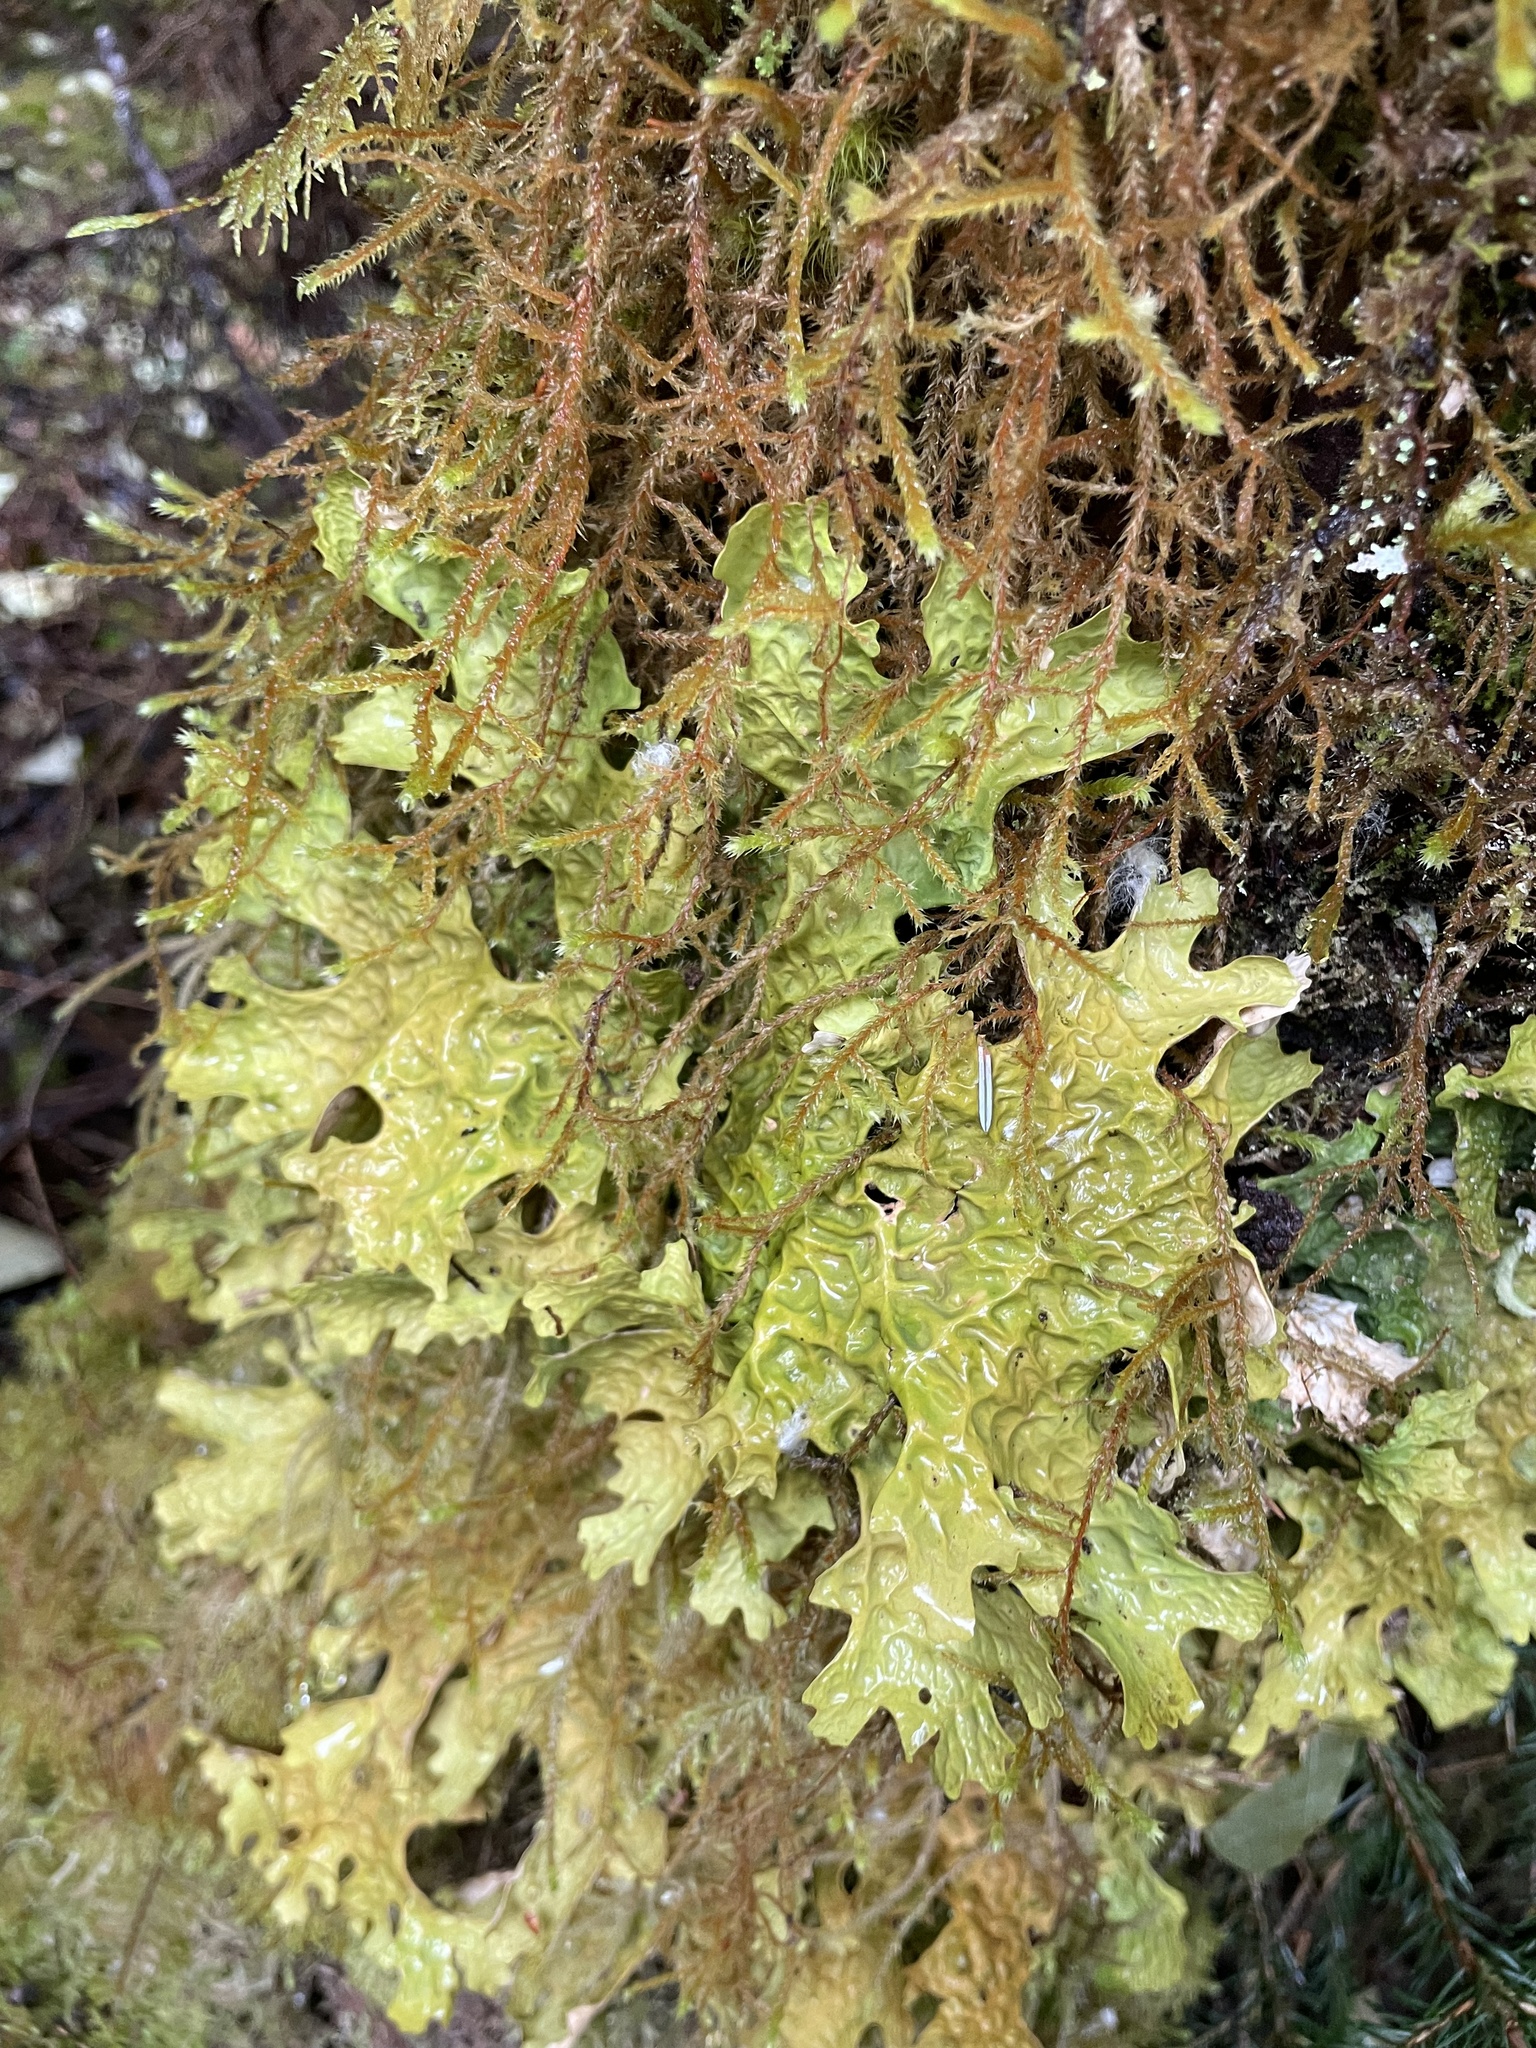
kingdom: Fungi
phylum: Ascomycota
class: Lecanoromycetes
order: Peltigerales
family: Lobariaceae
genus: Lobaria
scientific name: Lobaria linita
